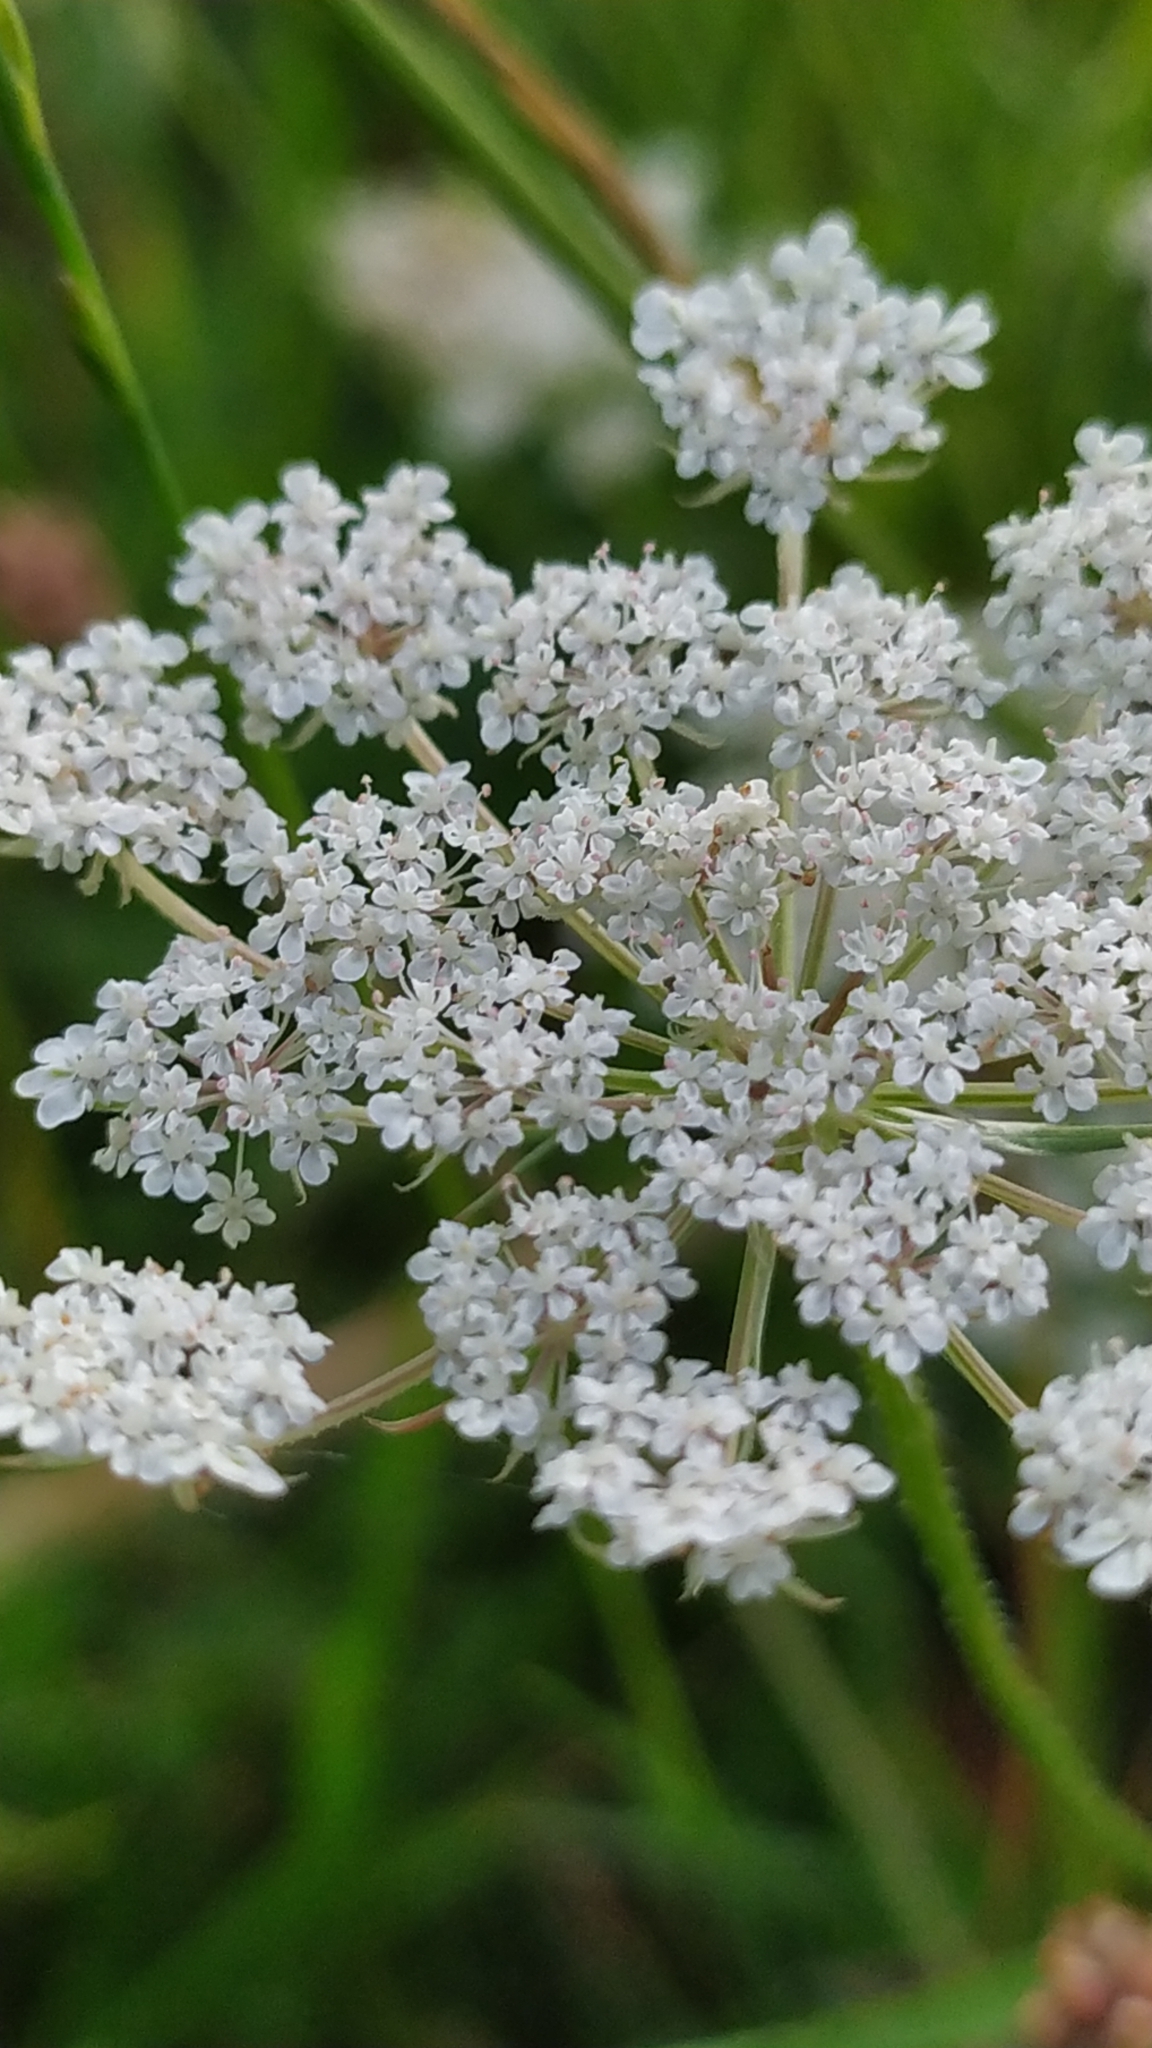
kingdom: Plantae
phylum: Tracheophyta
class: Magnoliopsida
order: Apiales
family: Apiaceae
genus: Daucus
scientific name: Daucus carota
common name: Wild carrot
